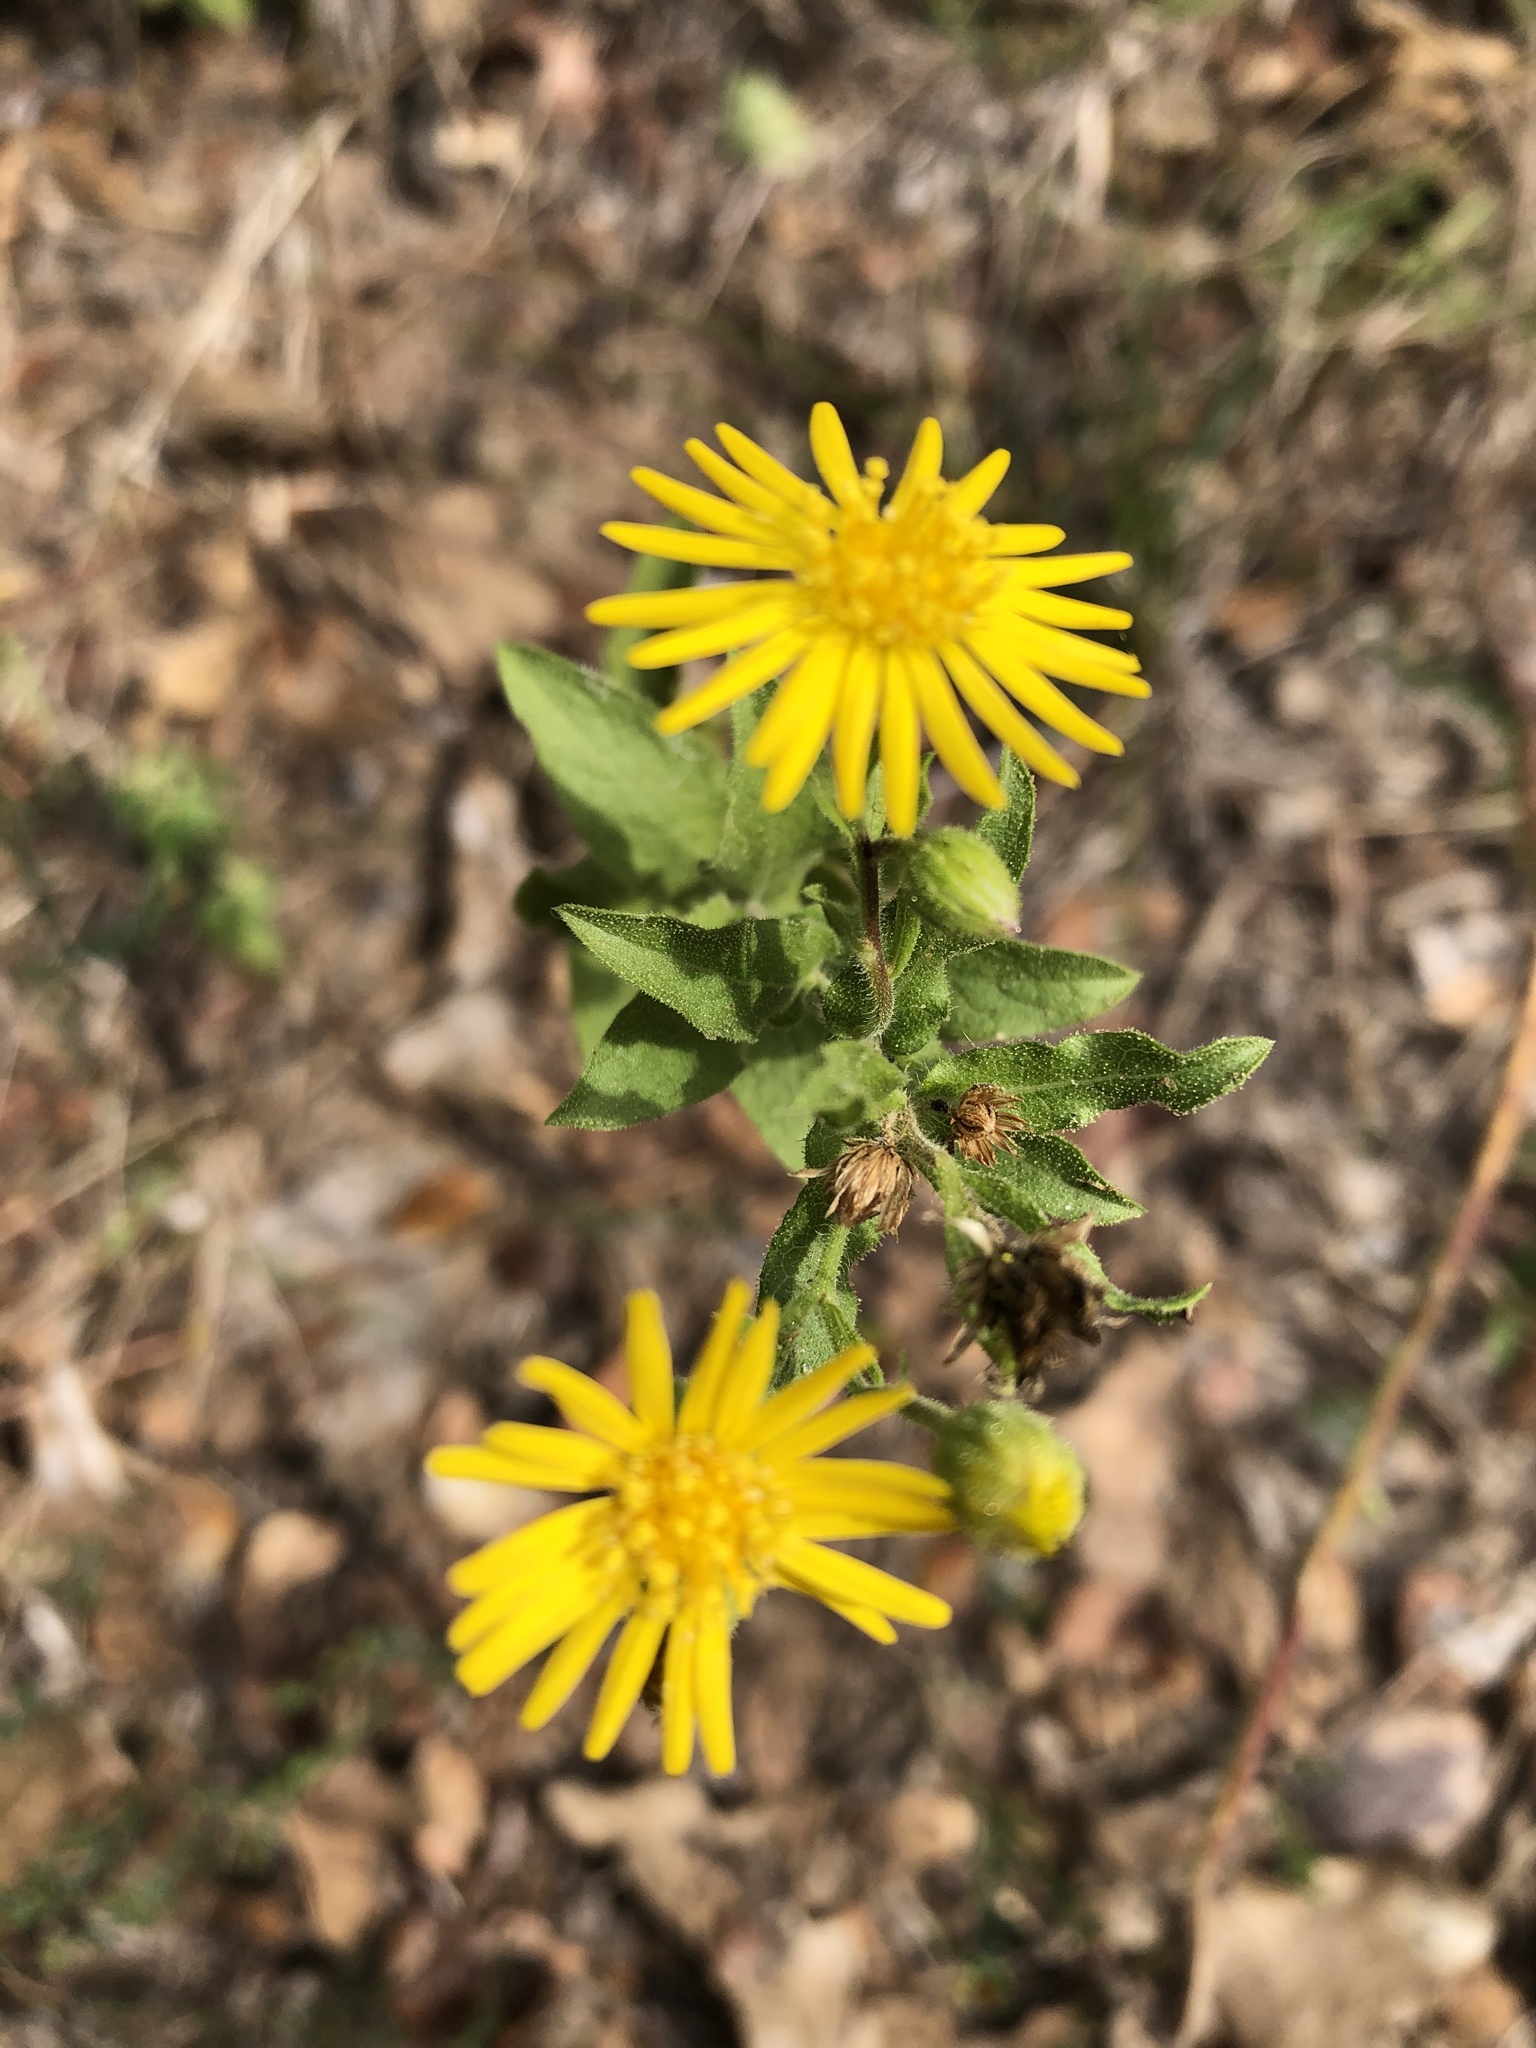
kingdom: Plantae
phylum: Tracheophyta
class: Magnoliopsida
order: Asterales
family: Asteraceae
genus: Heterotheca
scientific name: Heterotheca subaxillaris
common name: Camphorweed
